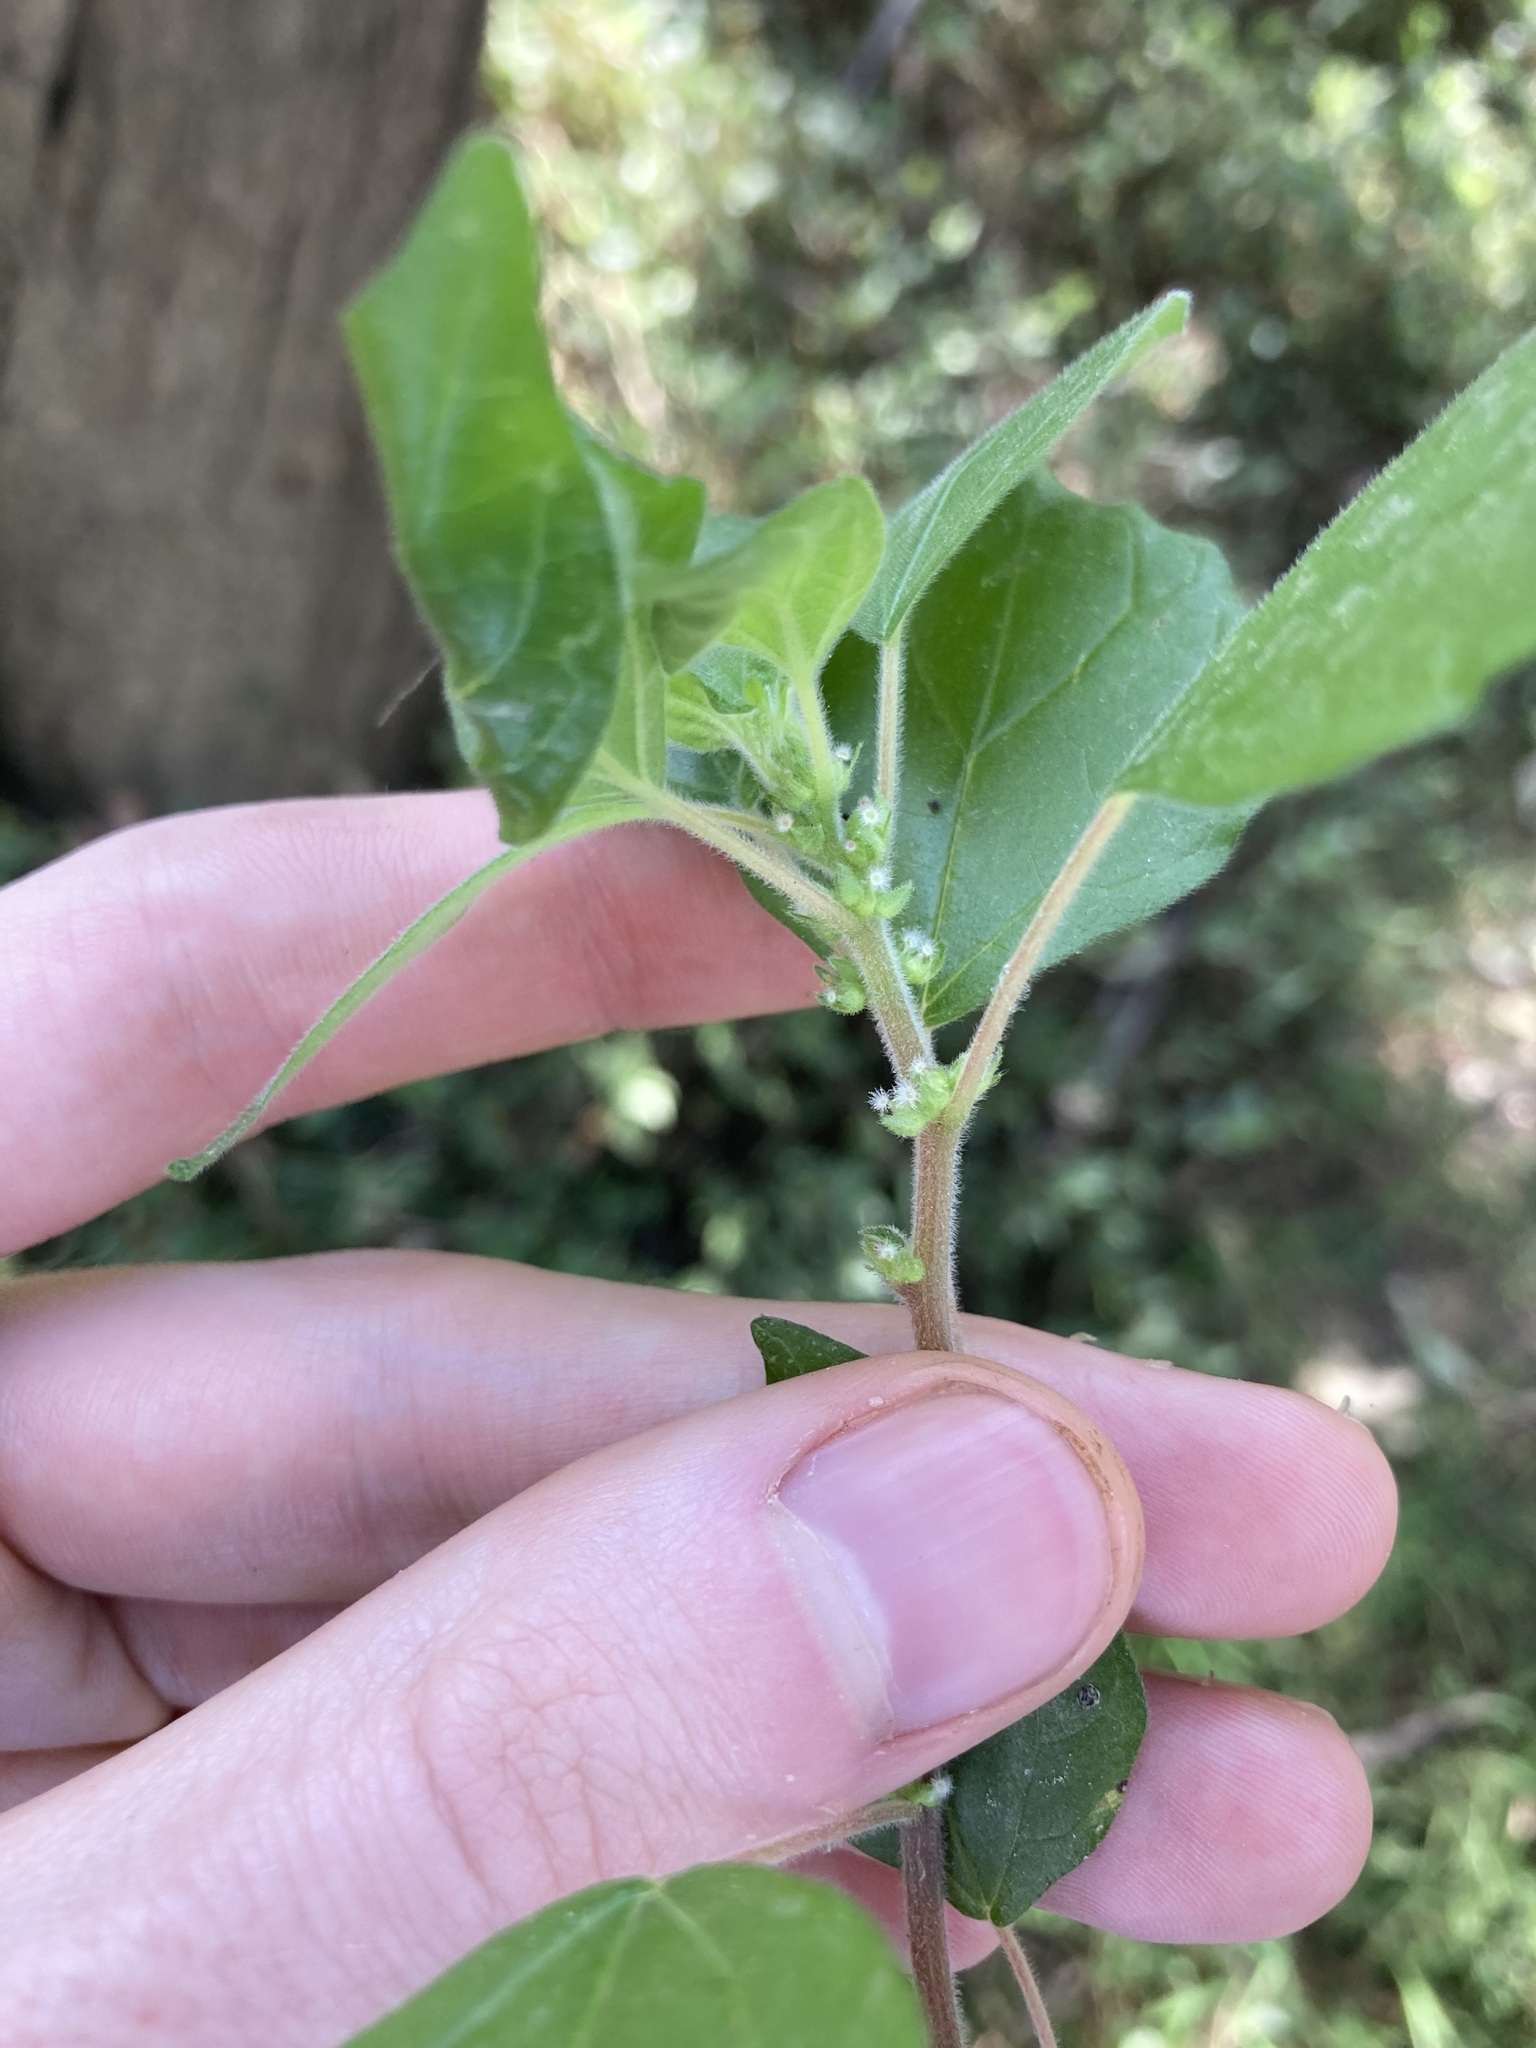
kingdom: Plantae
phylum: Tracheophyta
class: Magnoliopsida
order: Rosales
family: Urticaceae
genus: Parietaria
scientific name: Parietaria judaica
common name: Pellitory-of-the-wall
